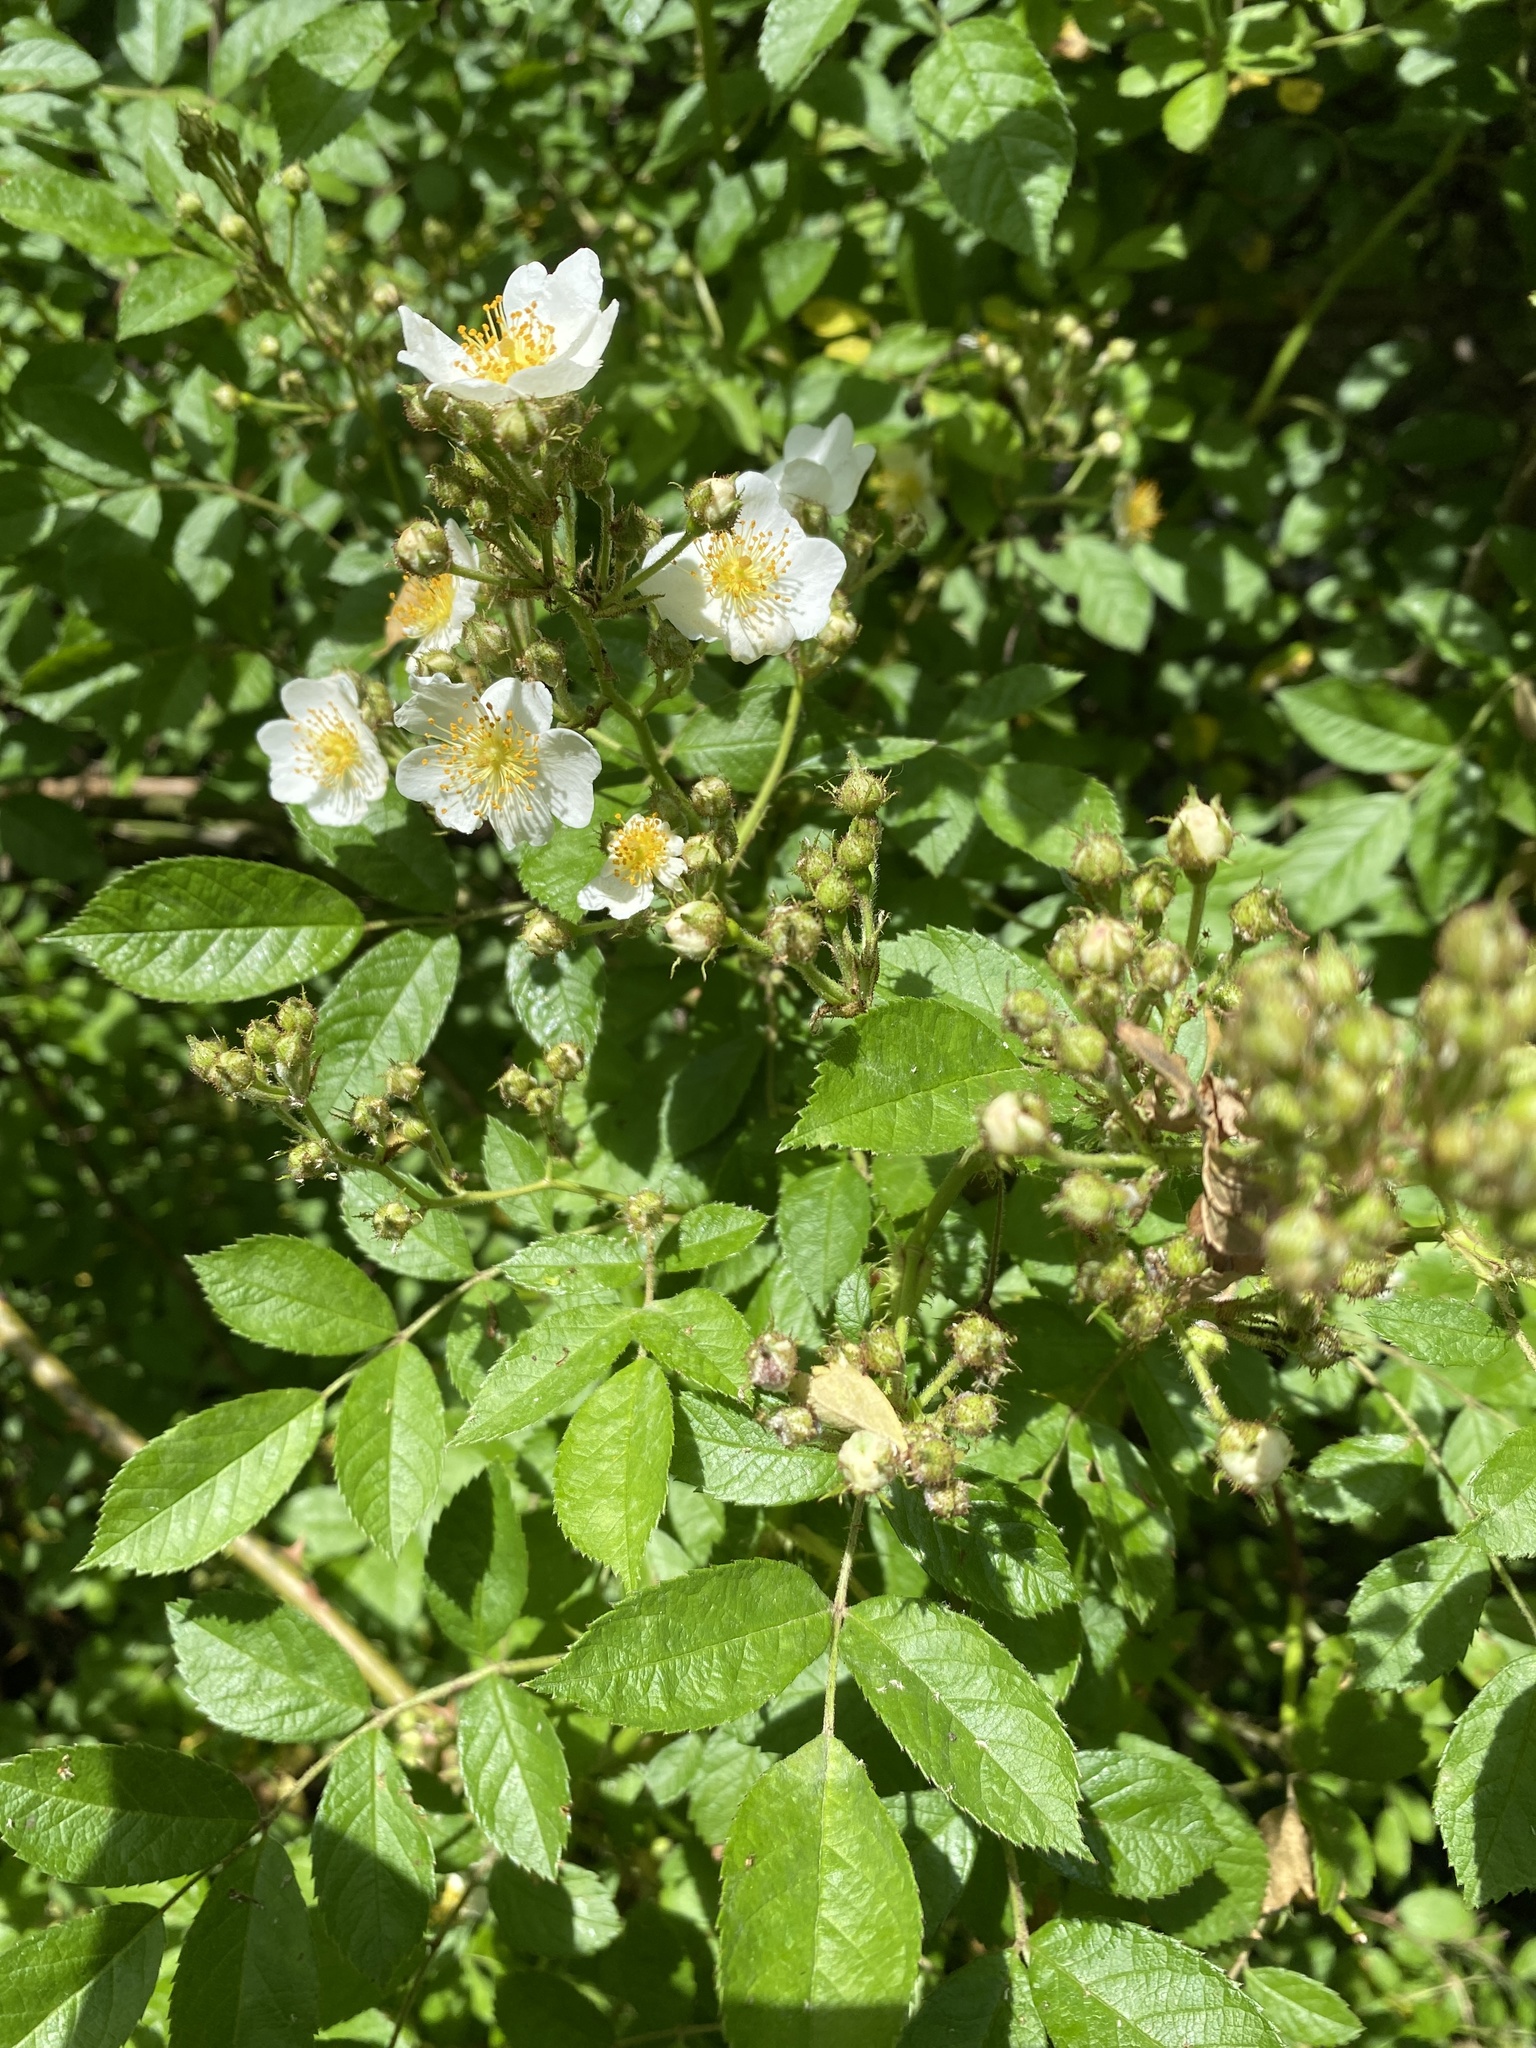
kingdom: Plantae
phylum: Tracheophyta
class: Magnoliopsida
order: Rosales
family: Rosaceae
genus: Rosa
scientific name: Rosa multiflora
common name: Multiflora rose
